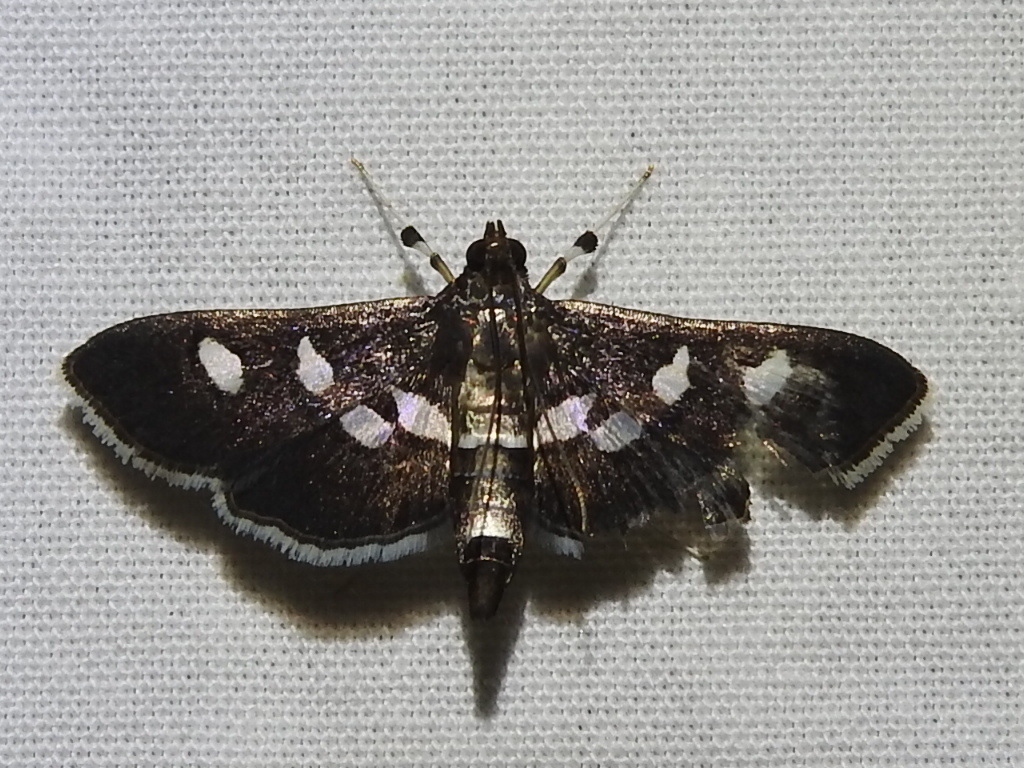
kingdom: Animalia
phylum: Arthropoda
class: Insecta
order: Lepidoptera
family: Crambidae
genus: Desmia
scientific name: Desmia funeralis
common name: Grape leaf folder moth
